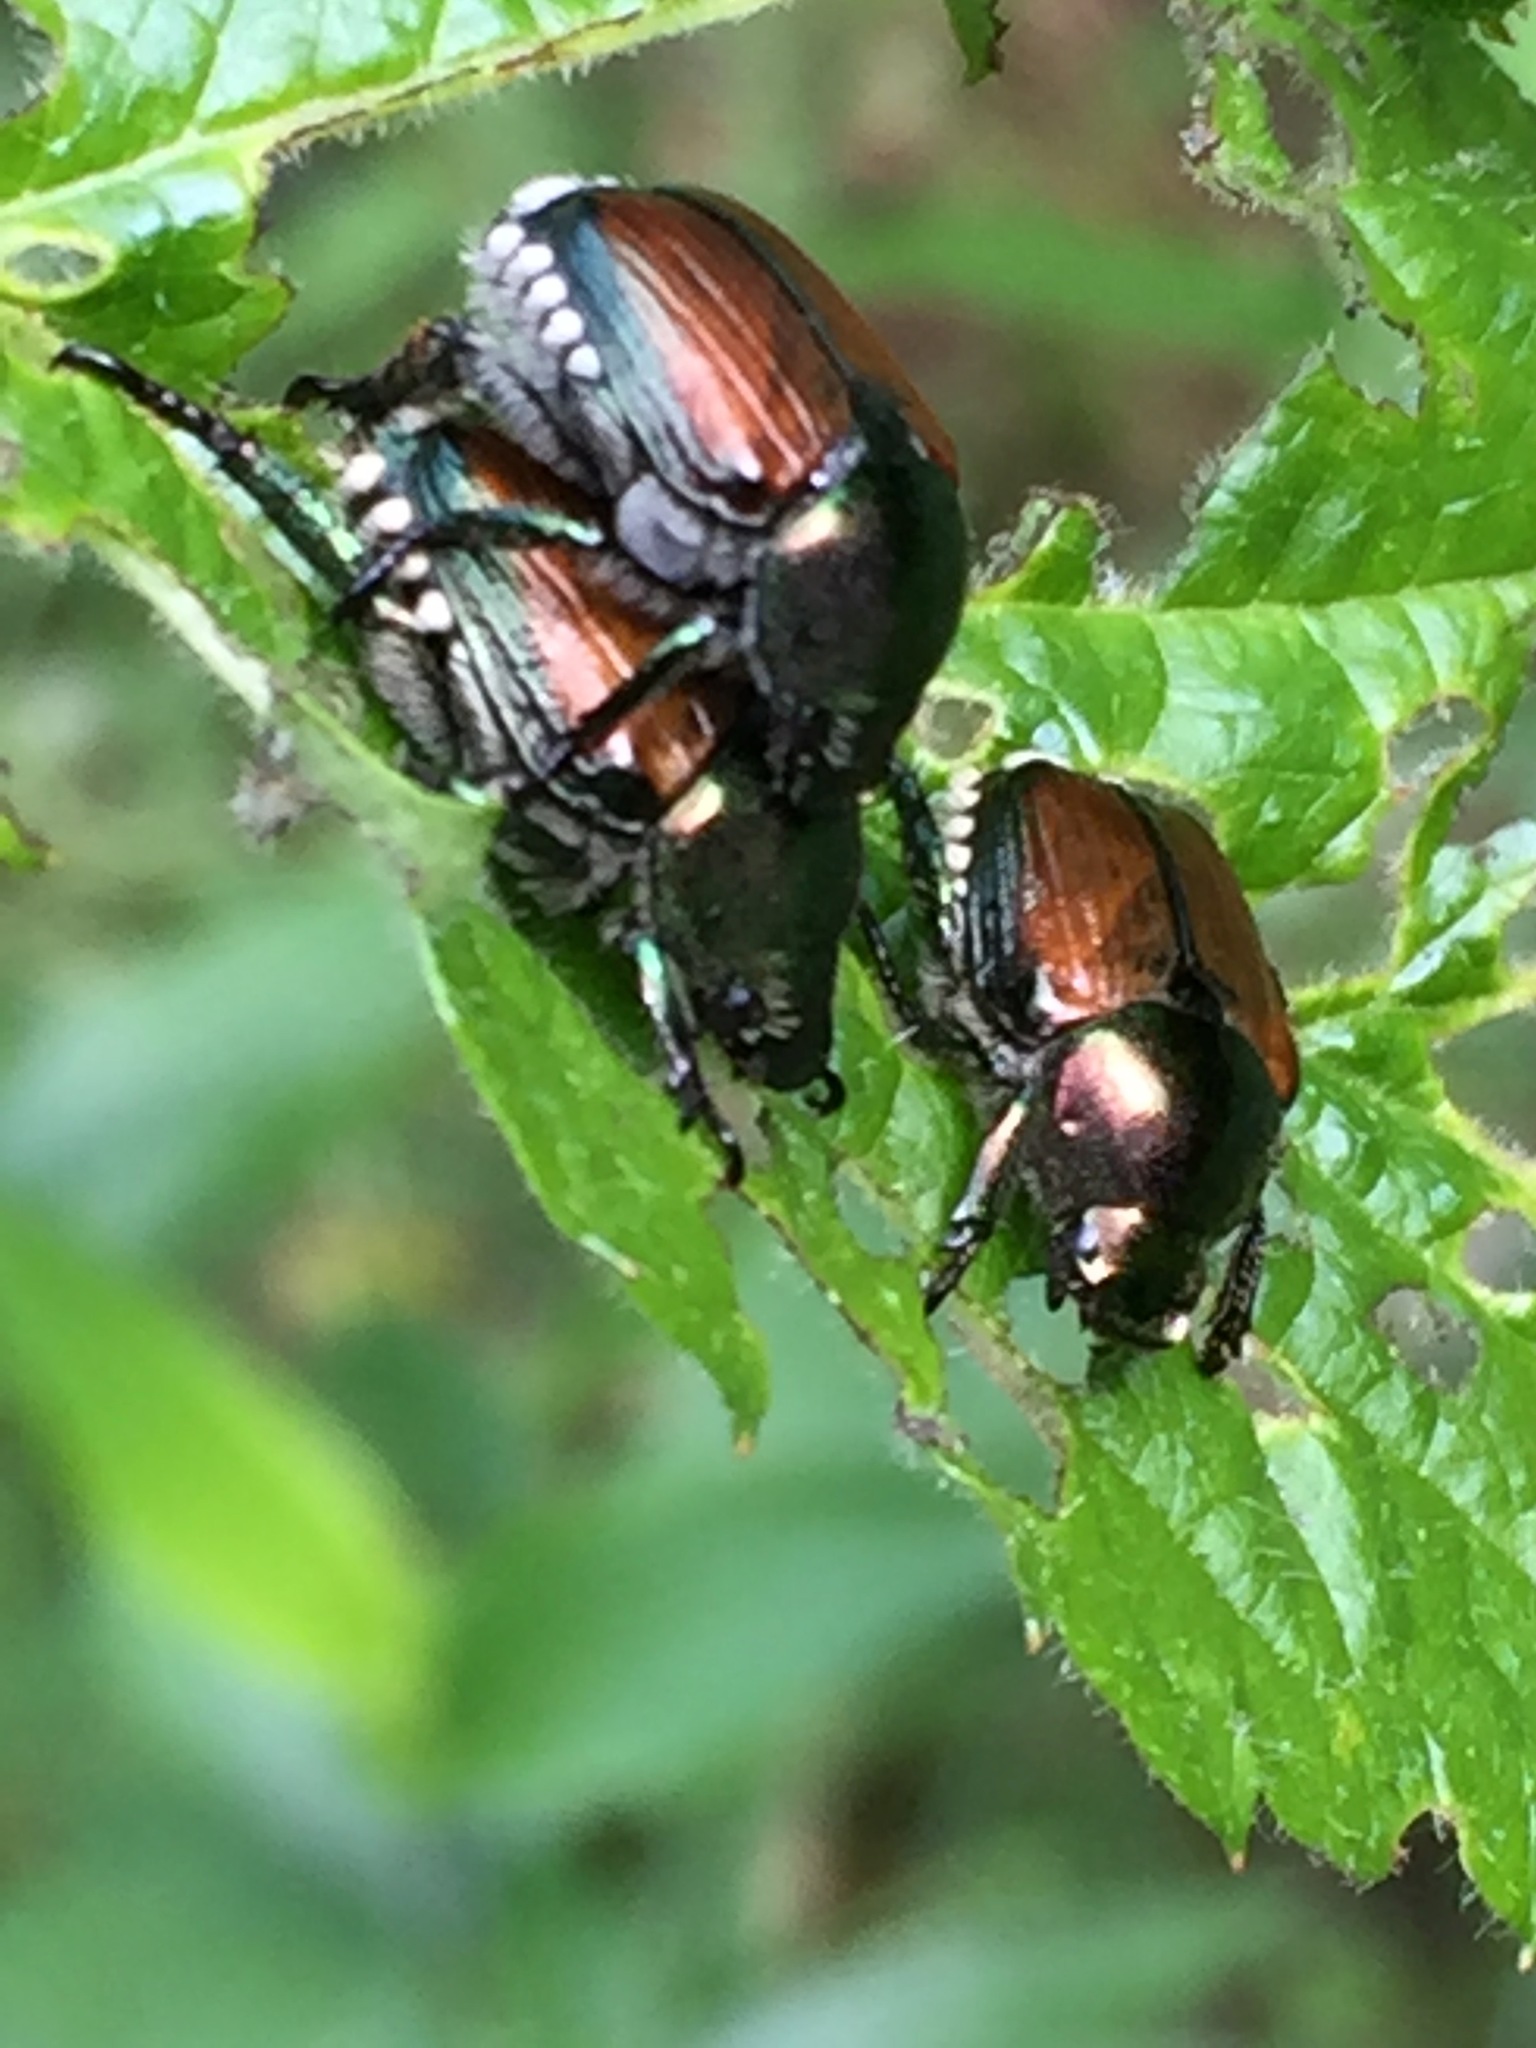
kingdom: Animalia
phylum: Arthropoda
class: Insecta
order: Coleoptera
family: Scarabaeidae
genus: Popillia
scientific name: Popillia japonica
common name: Japanese beetle
